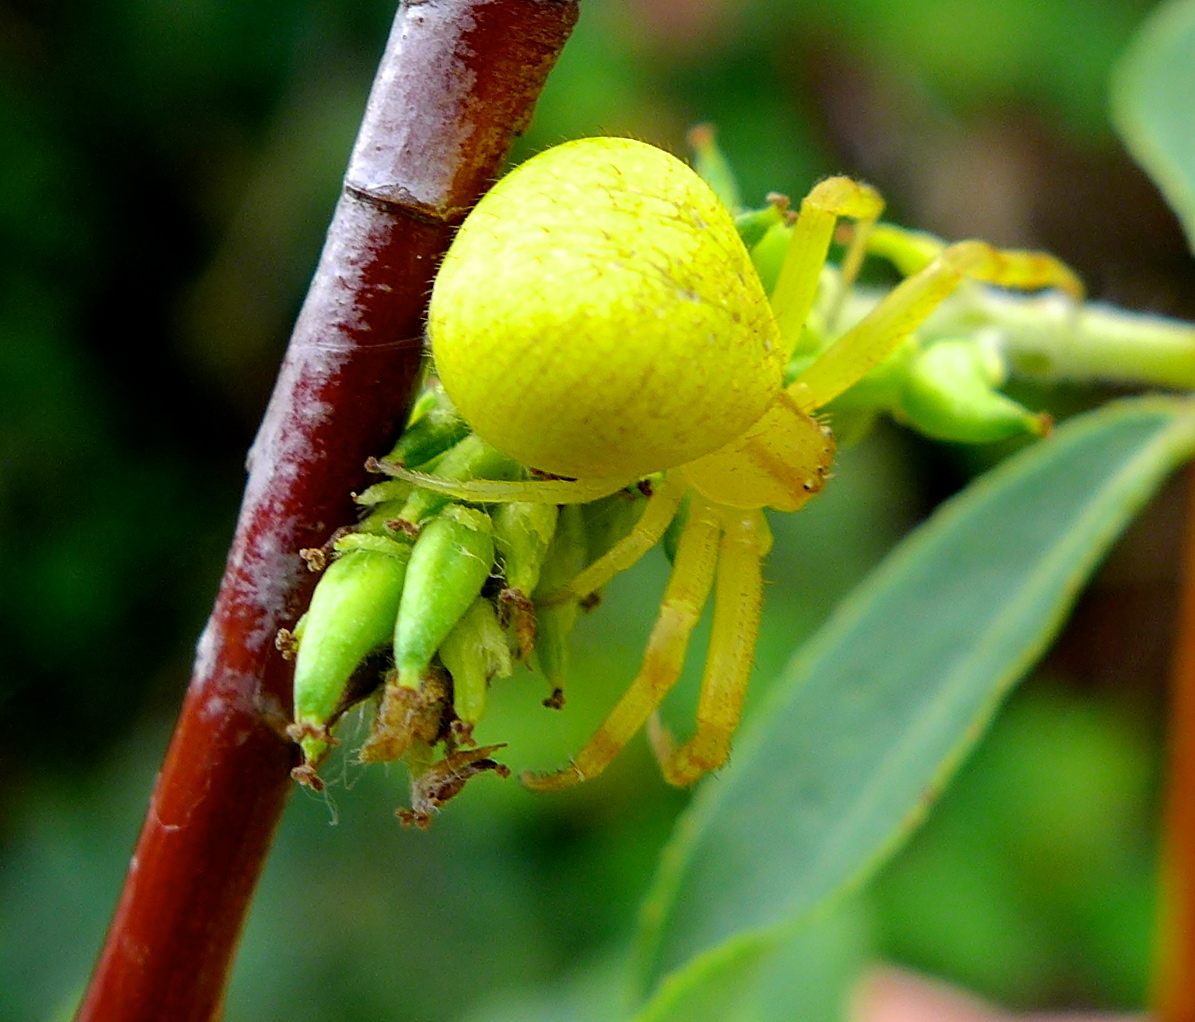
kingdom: Animalia
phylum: Arthropoda
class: Arachnida
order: Araneae
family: Thomisidae
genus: Misumena
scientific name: Misumena vatia
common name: Goldenrod crab spider
